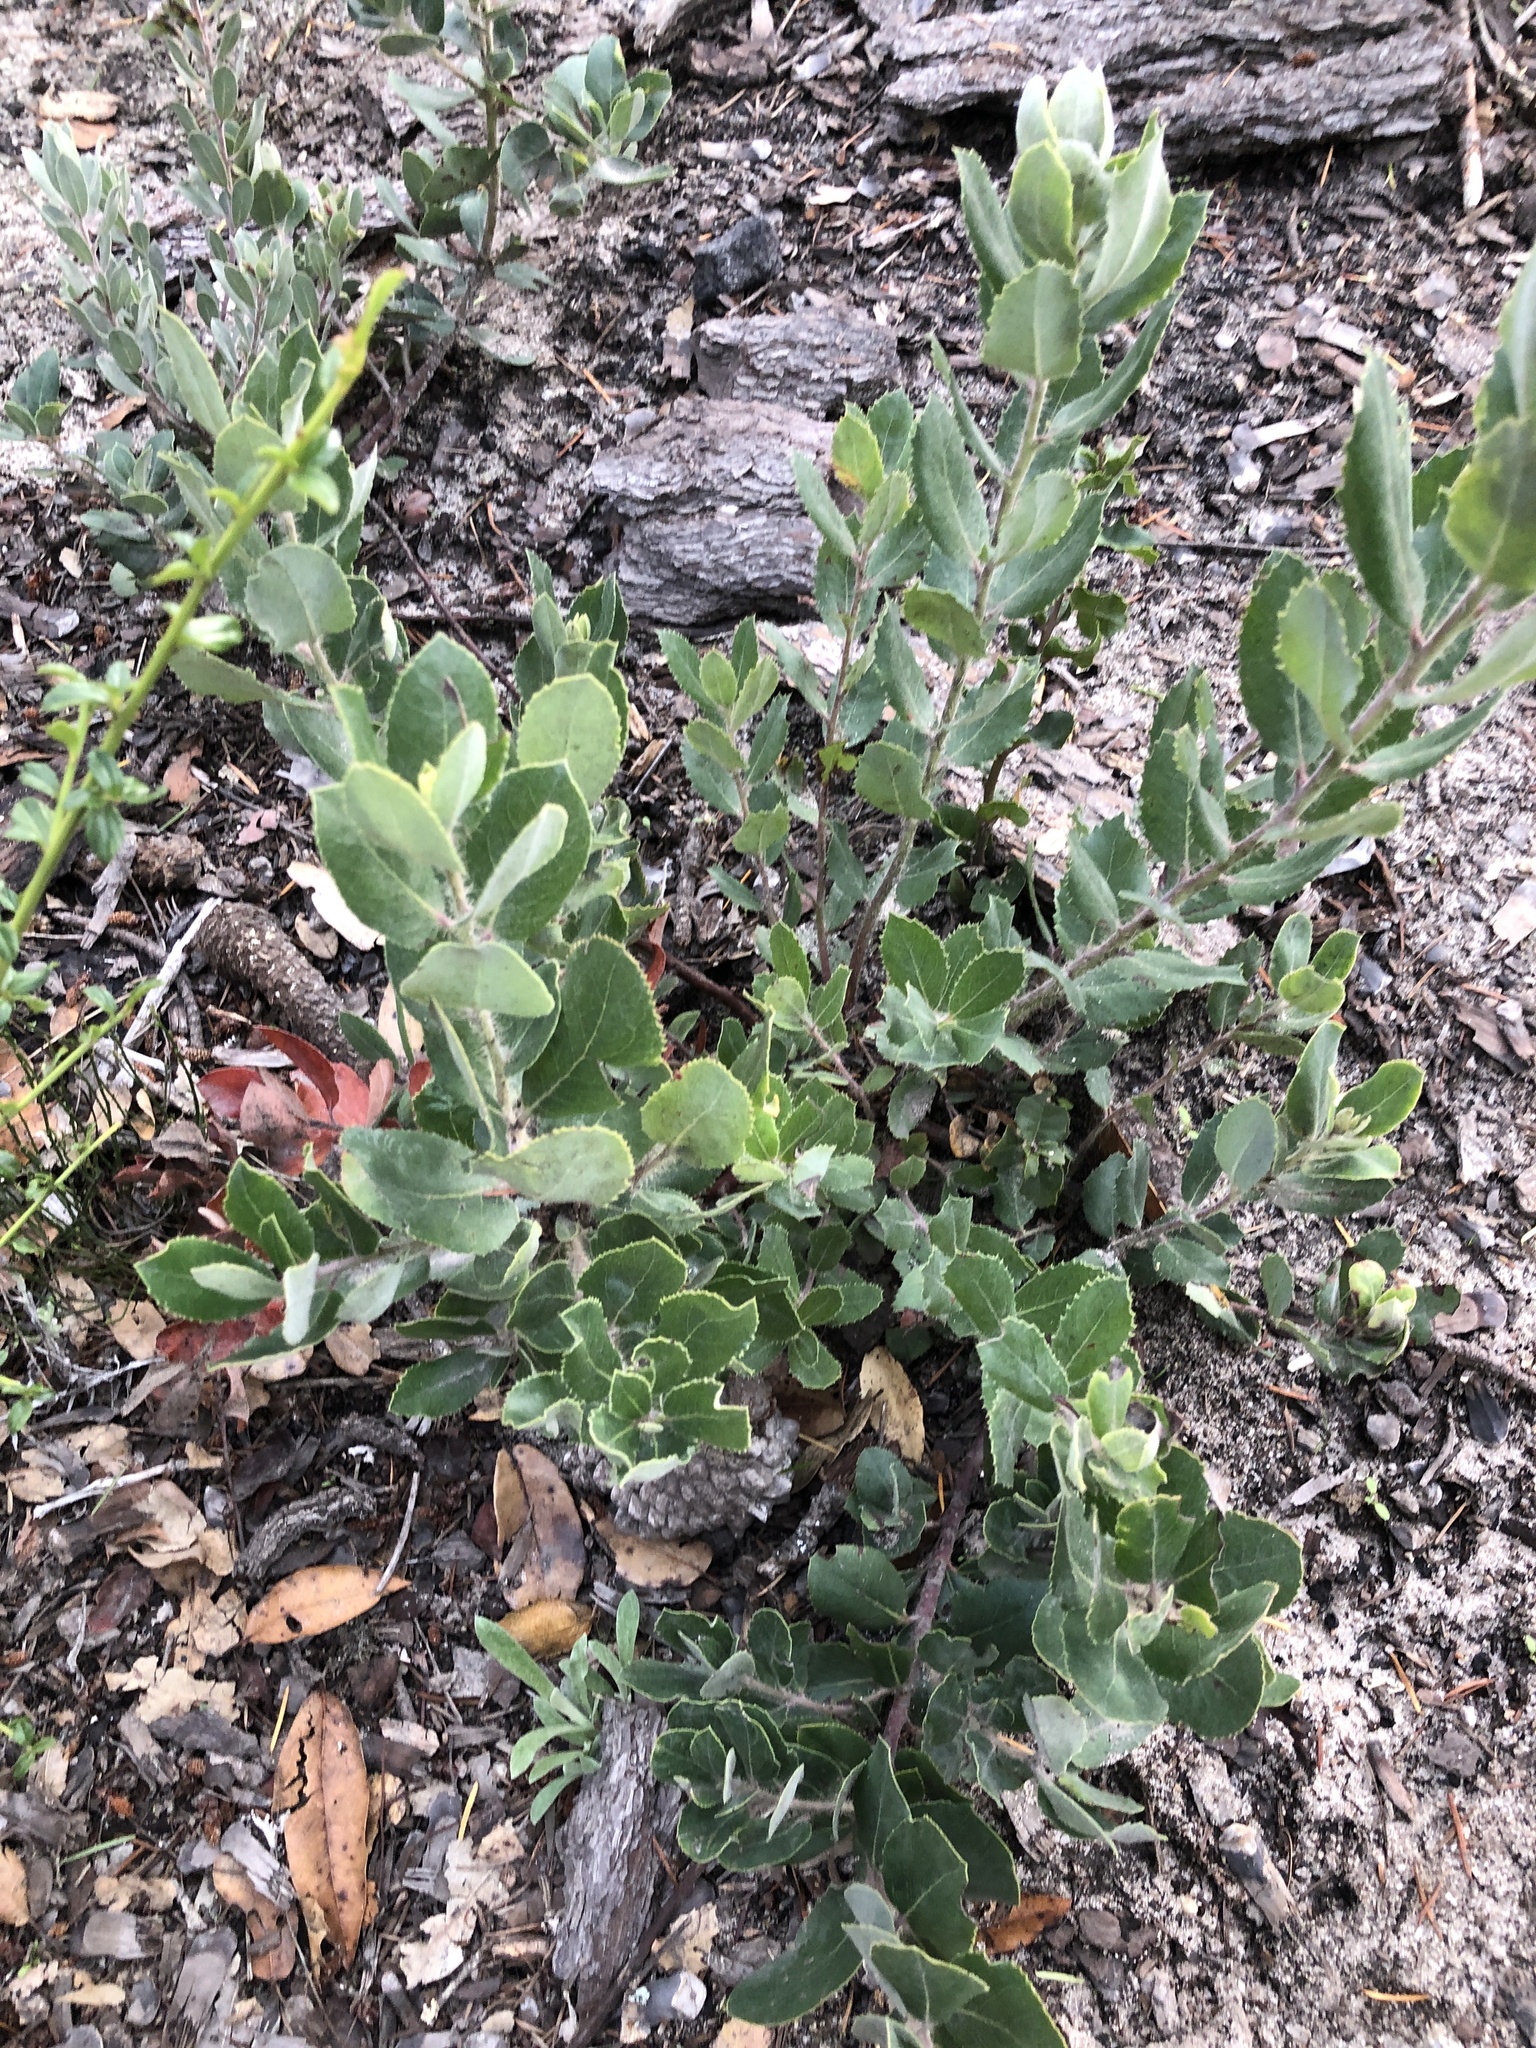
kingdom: Plantae
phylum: Tracheophyta
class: Magnoliopsida
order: Ericales
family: Ericaceae
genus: Arctostaphylos
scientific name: Arctostaphylos crustacea
